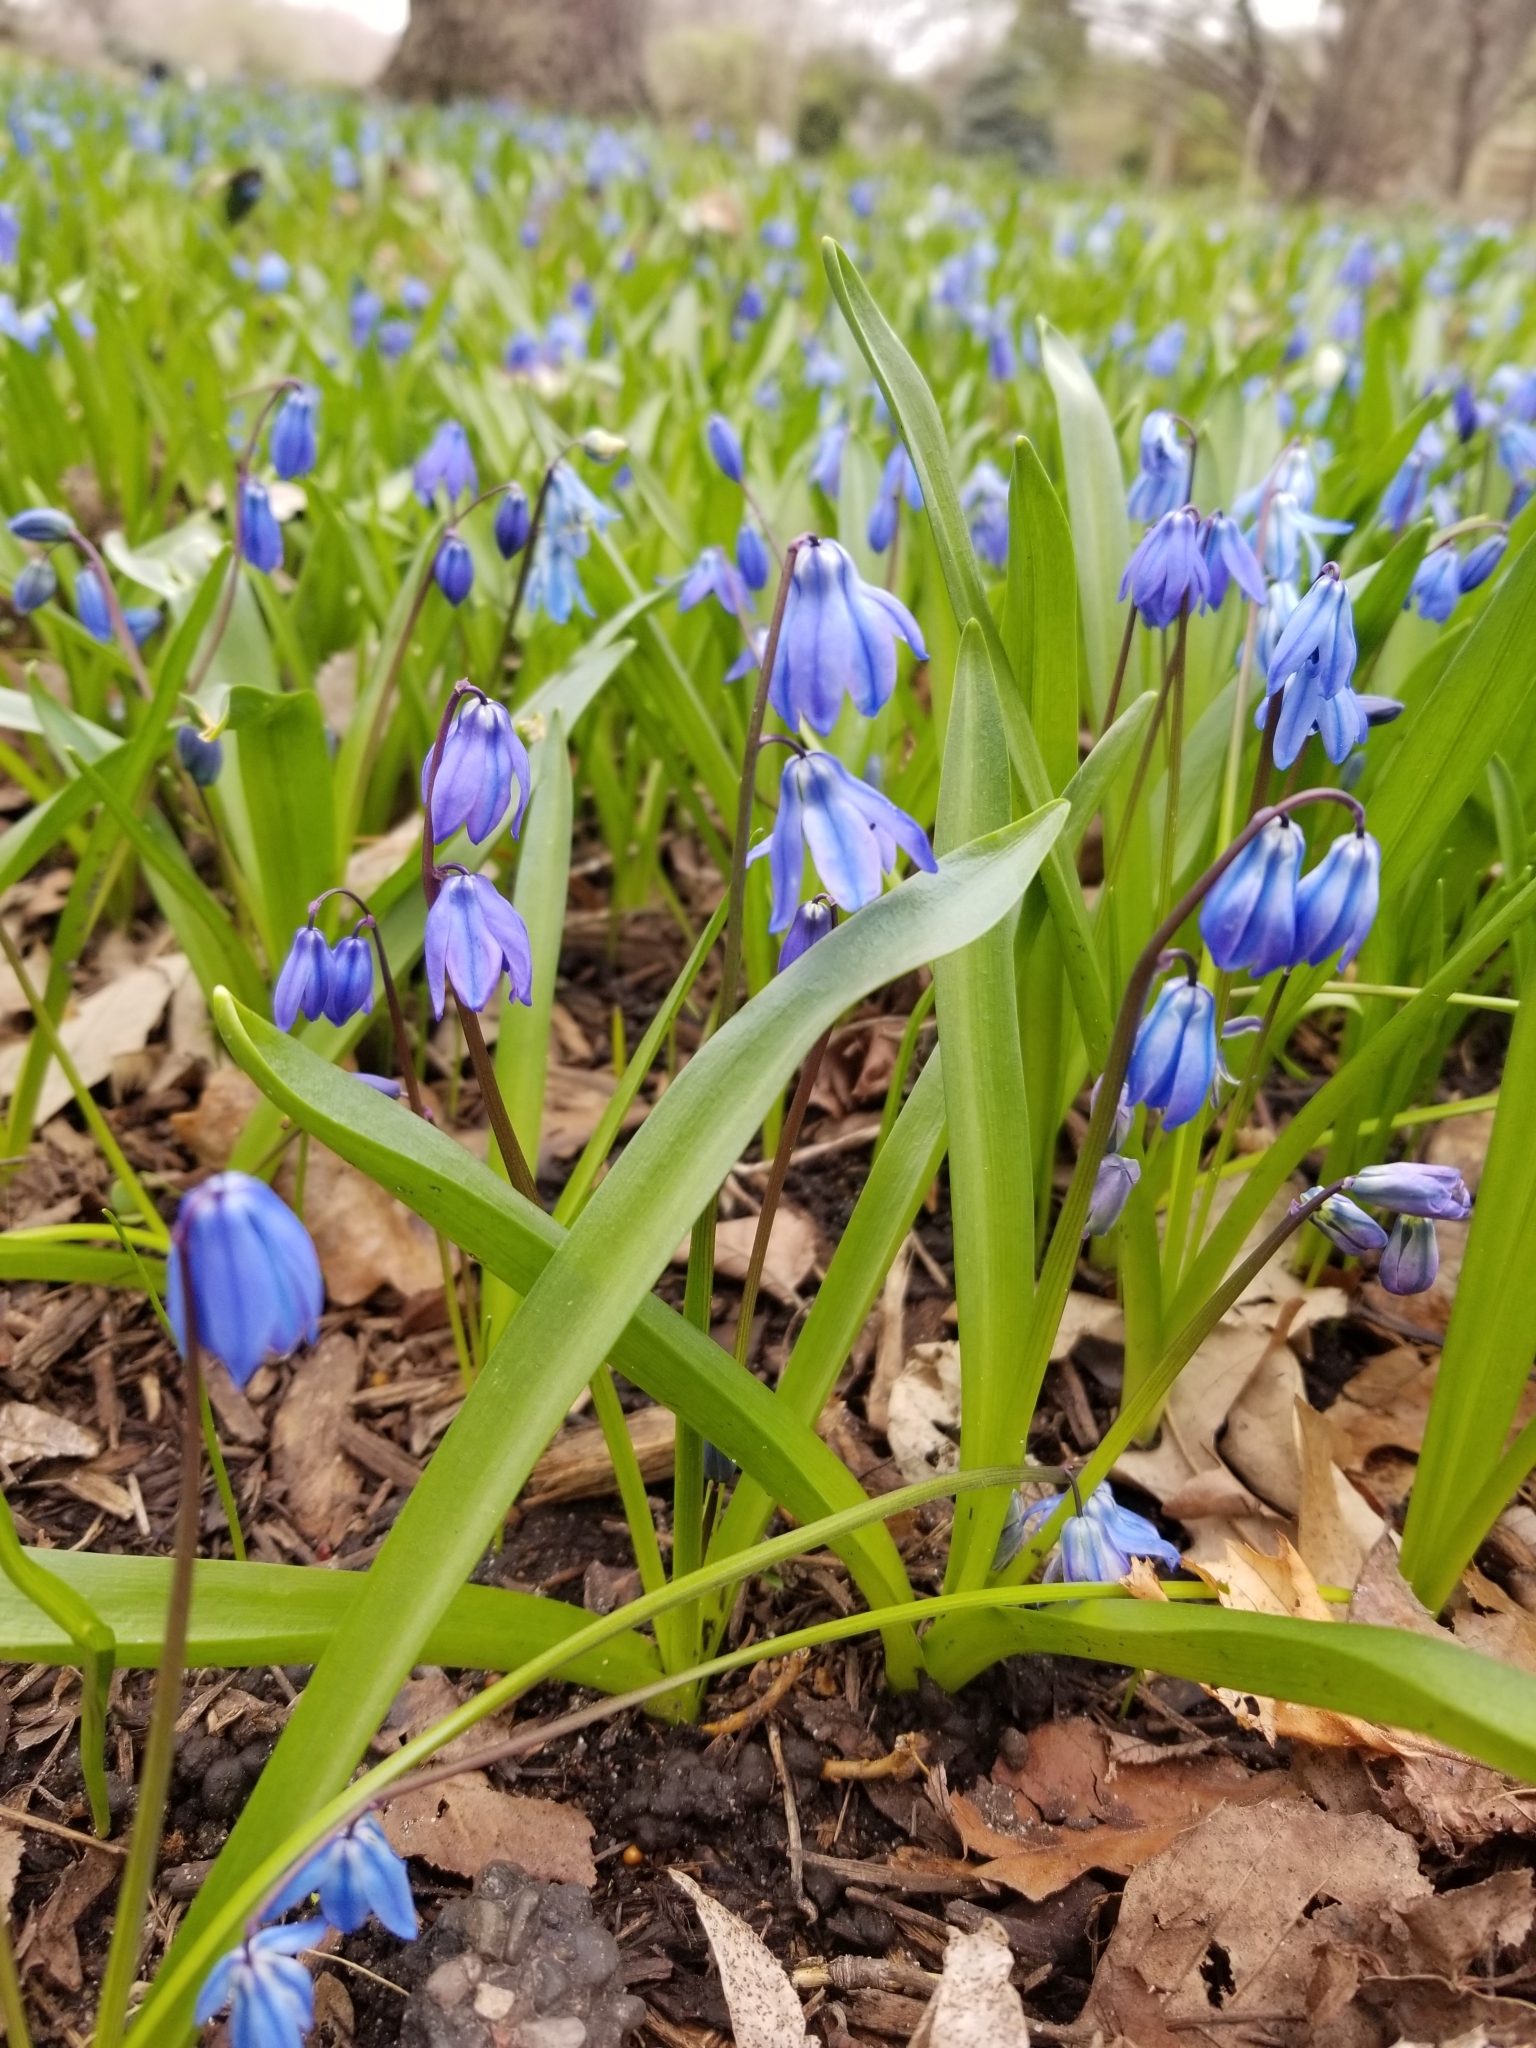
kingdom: Plantae
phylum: Tracheophyta
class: Liliopsida
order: Asparagales
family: Asparagaceae
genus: Scilla
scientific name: Scilla siberica
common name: Siberian squill
